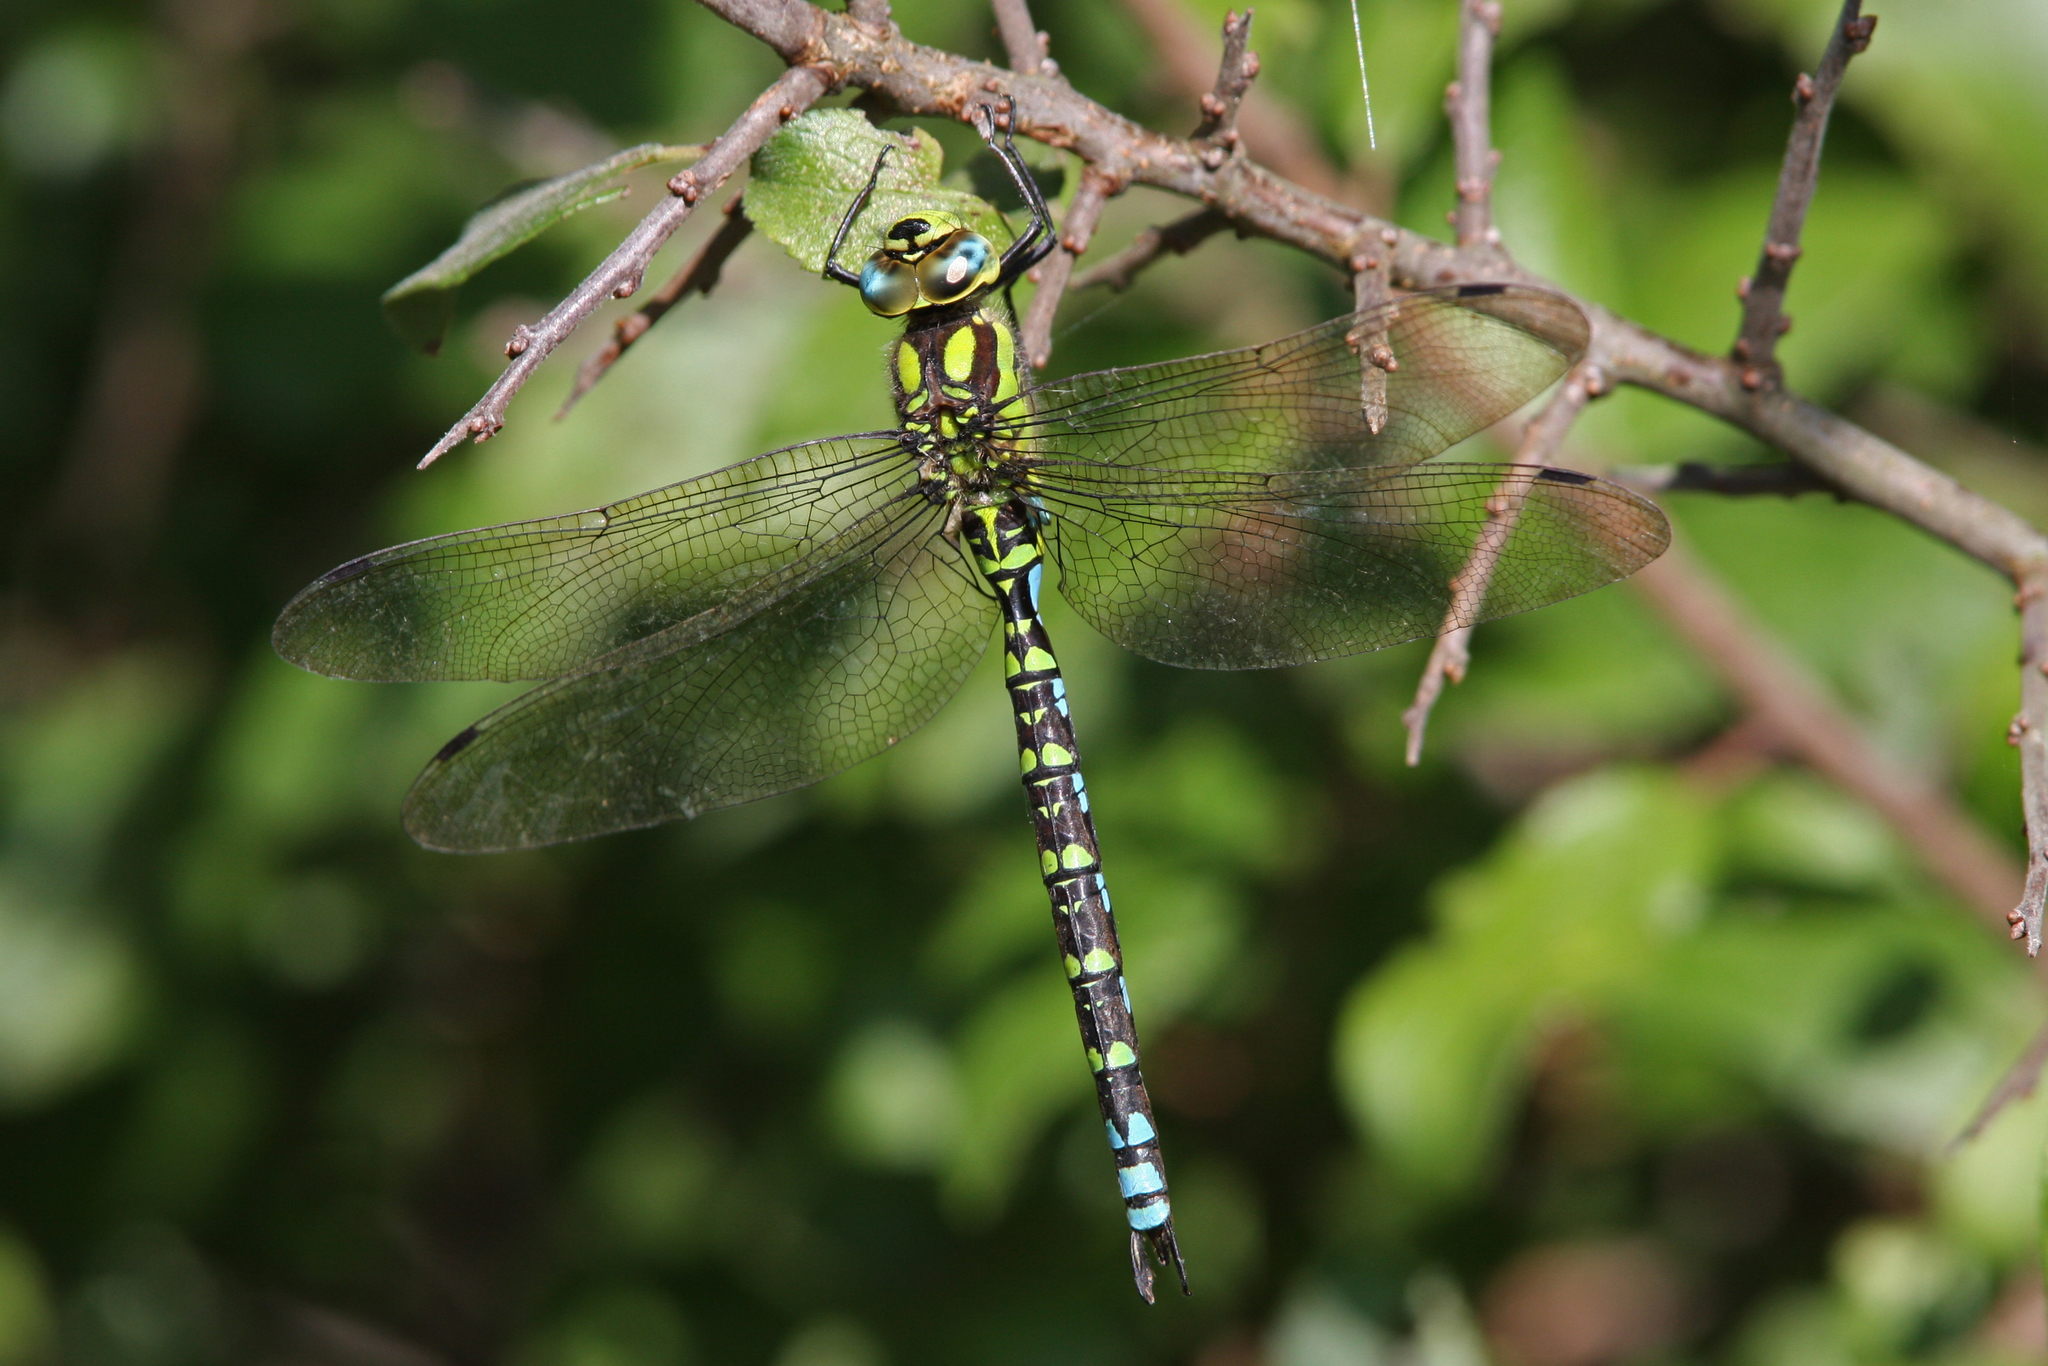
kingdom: Animalia
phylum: Arthropoda
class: Insecta
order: Odonata
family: Aeshnidae
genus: Aeshna
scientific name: Aeshna cyanea
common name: Southern hawker
